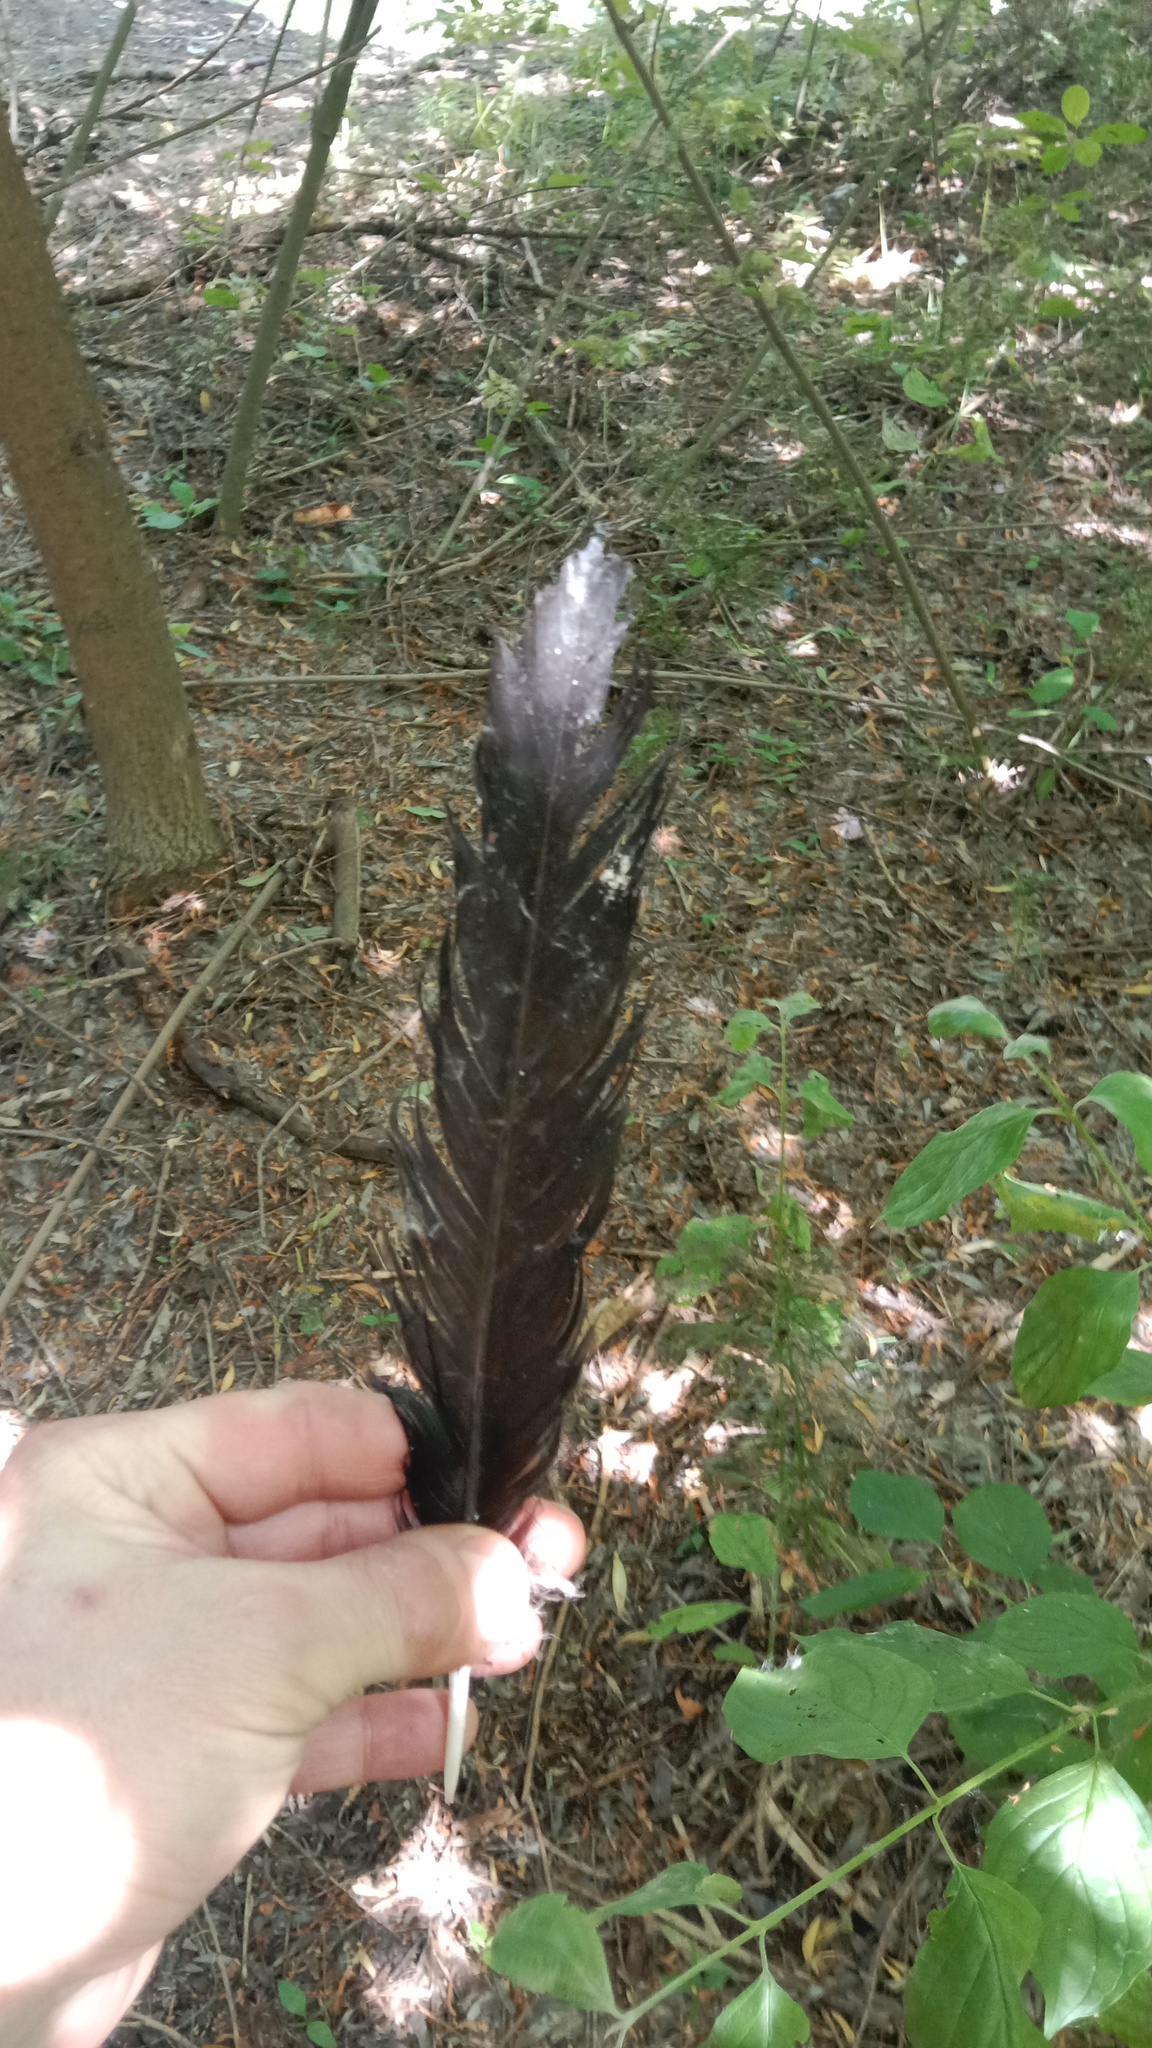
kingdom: Animalia
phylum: Chordata
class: Aves
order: Passeriformes
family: Corvidae
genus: Corvus
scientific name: Corvus corax
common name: Common raven
